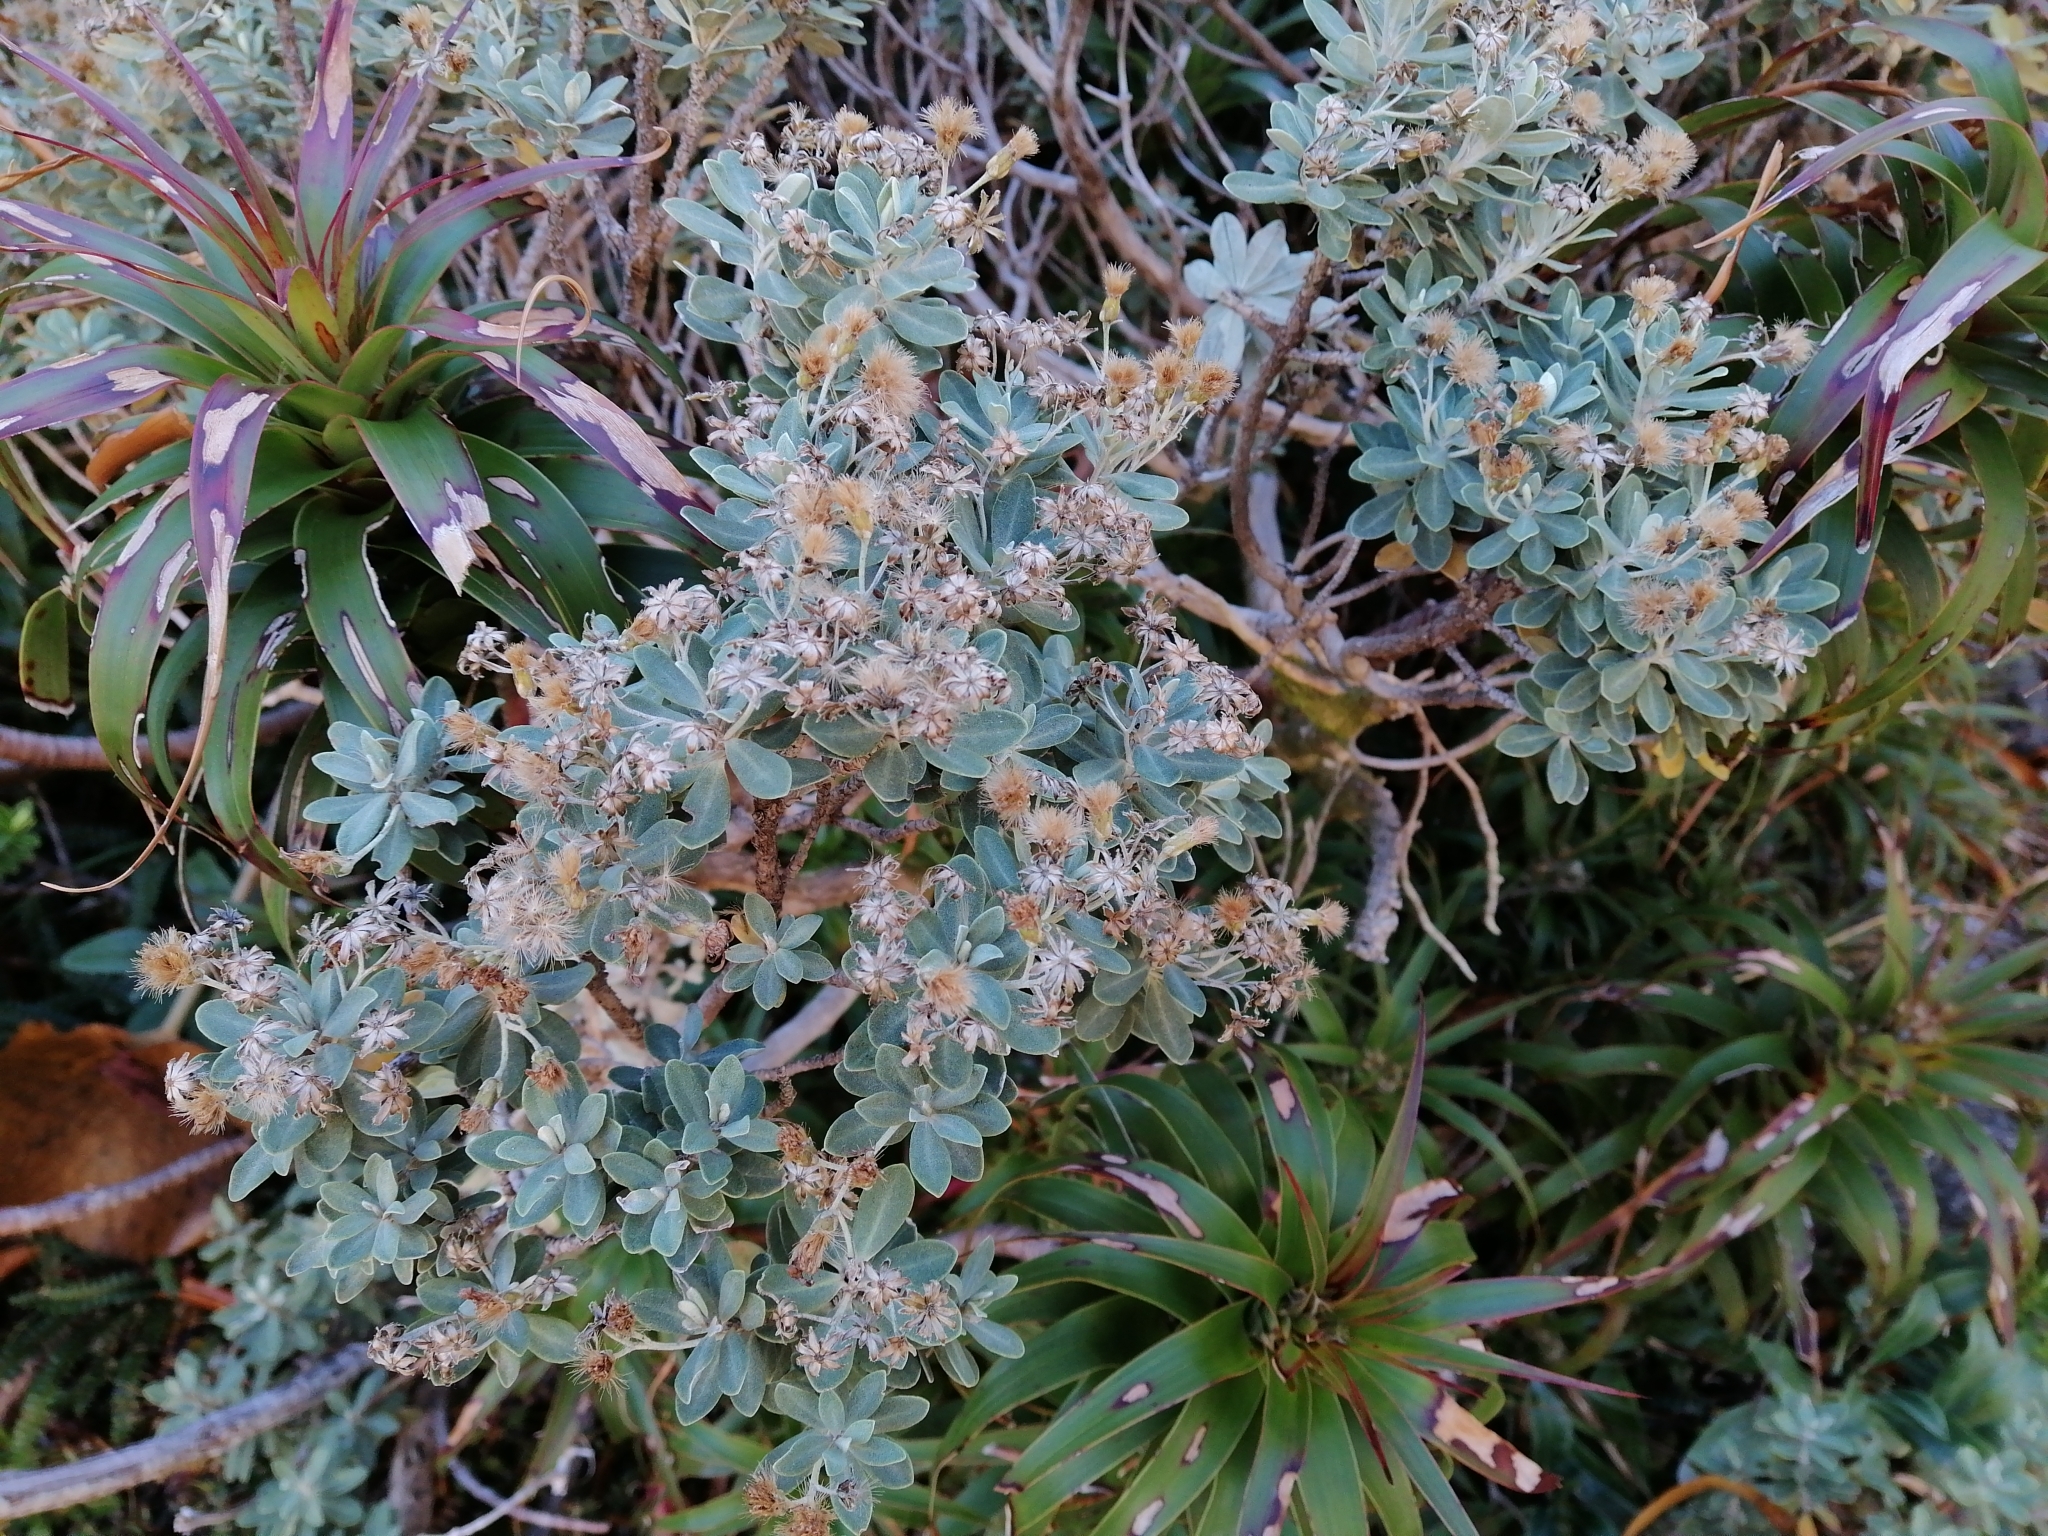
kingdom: Plantae
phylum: Tracheophyta
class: Magnoliopsida
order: Asterales
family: Asteraceae
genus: Olearia
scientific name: Olearia moschata
